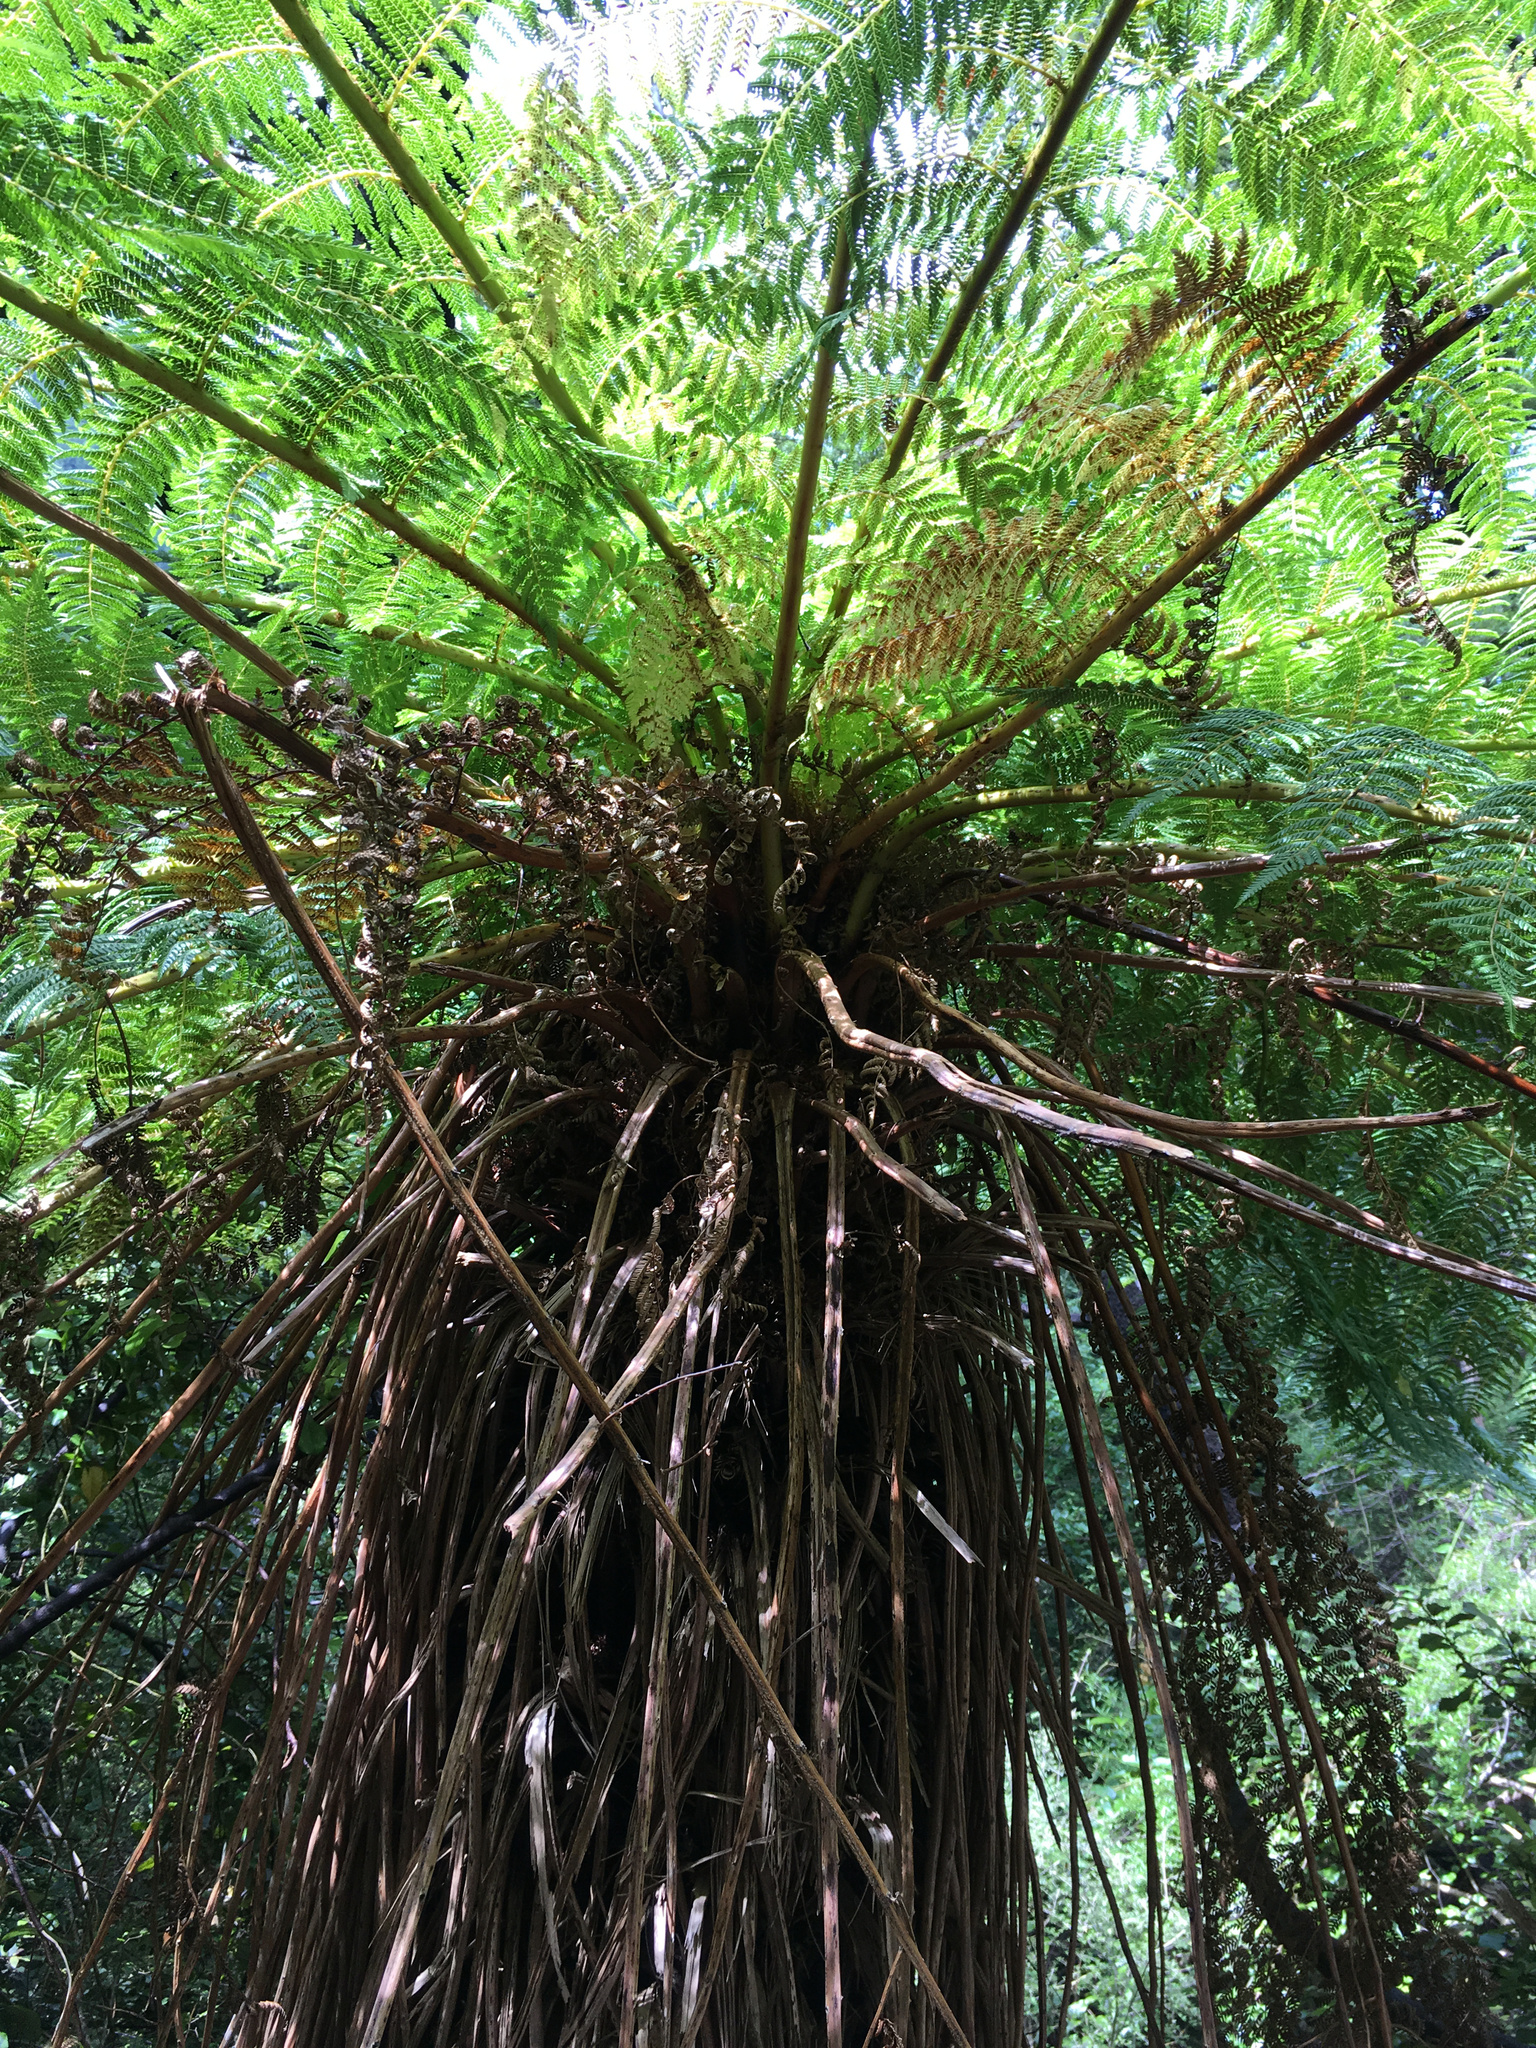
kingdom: Plantae
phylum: Tracheophyta
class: Polypodiopsida
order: Cyatheales
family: Cyatheaceae
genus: Alsophila
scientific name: Alsophila smithii
